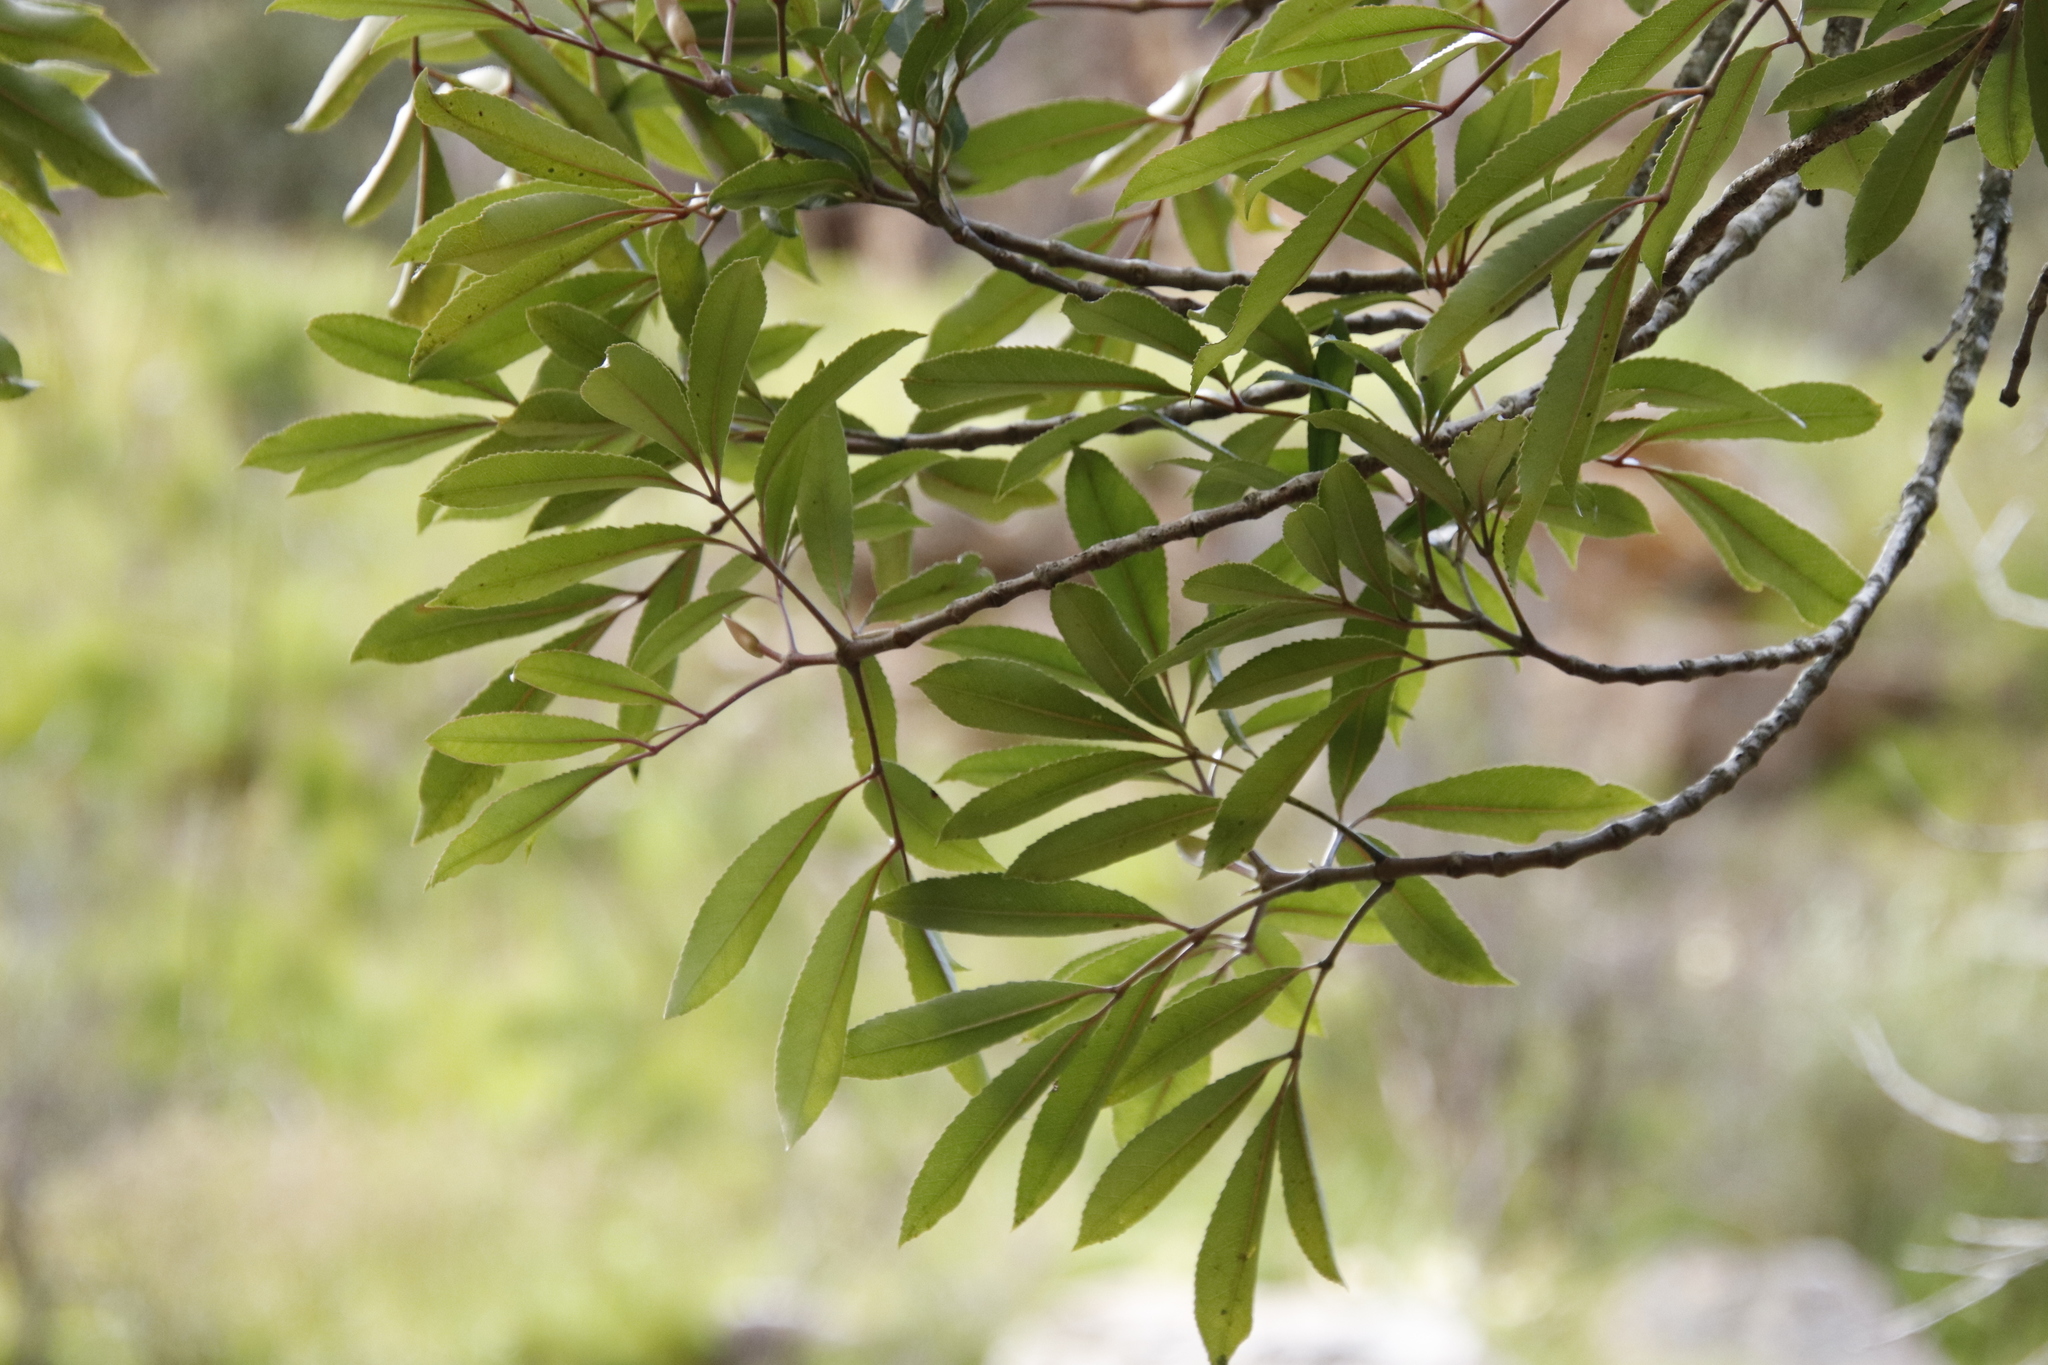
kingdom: Plantae
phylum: Tracheophyta
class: Magnoliopsida
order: Oxalidales
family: Cunoniaceae
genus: Cunonia
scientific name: Cunonia capensis
